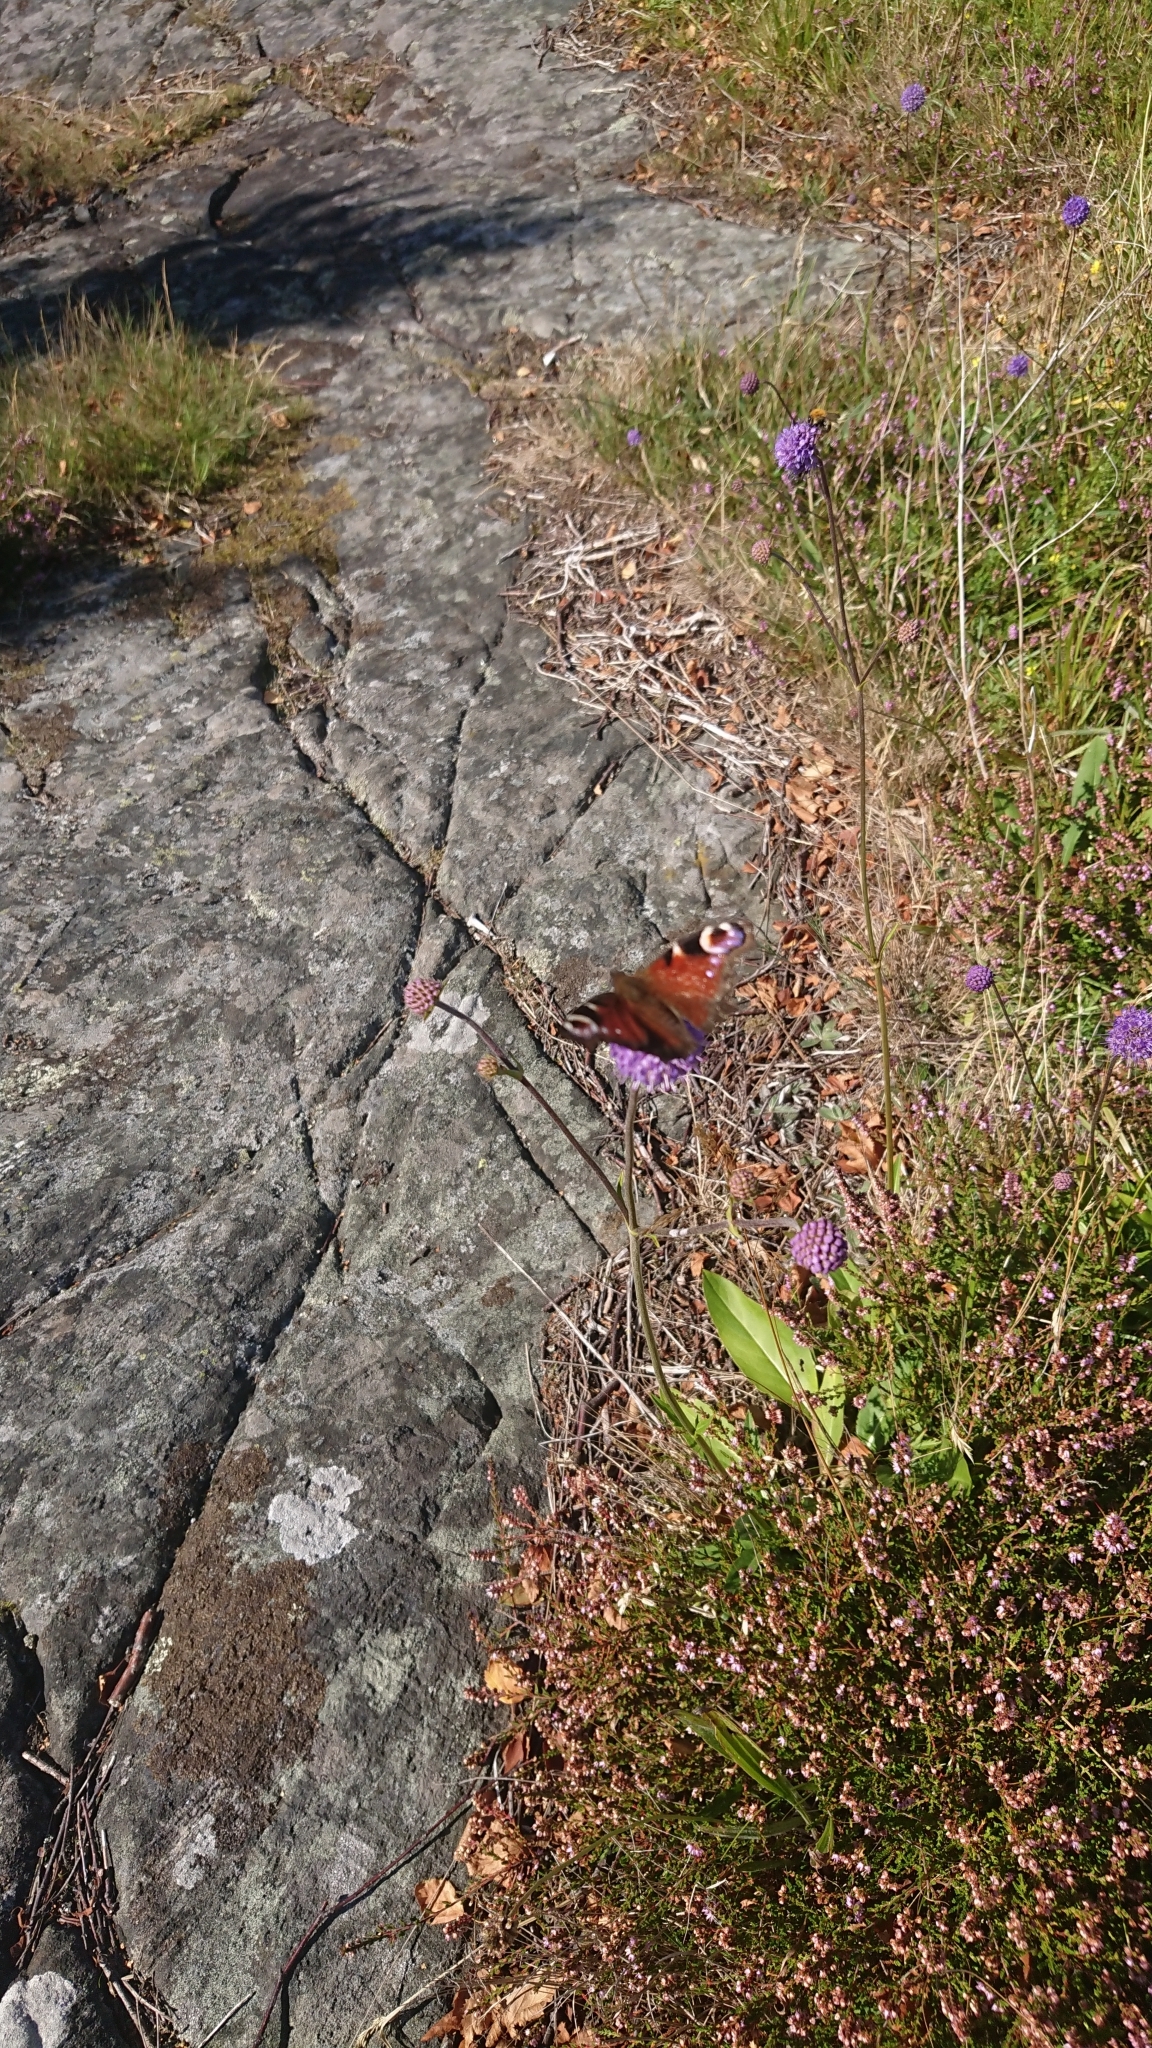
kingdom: Animalia
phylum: Arthropoda
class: Insecta
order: Lepidoptera
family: Nymphalidae
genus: Aglais
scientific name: Aglais io
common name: Peacock
